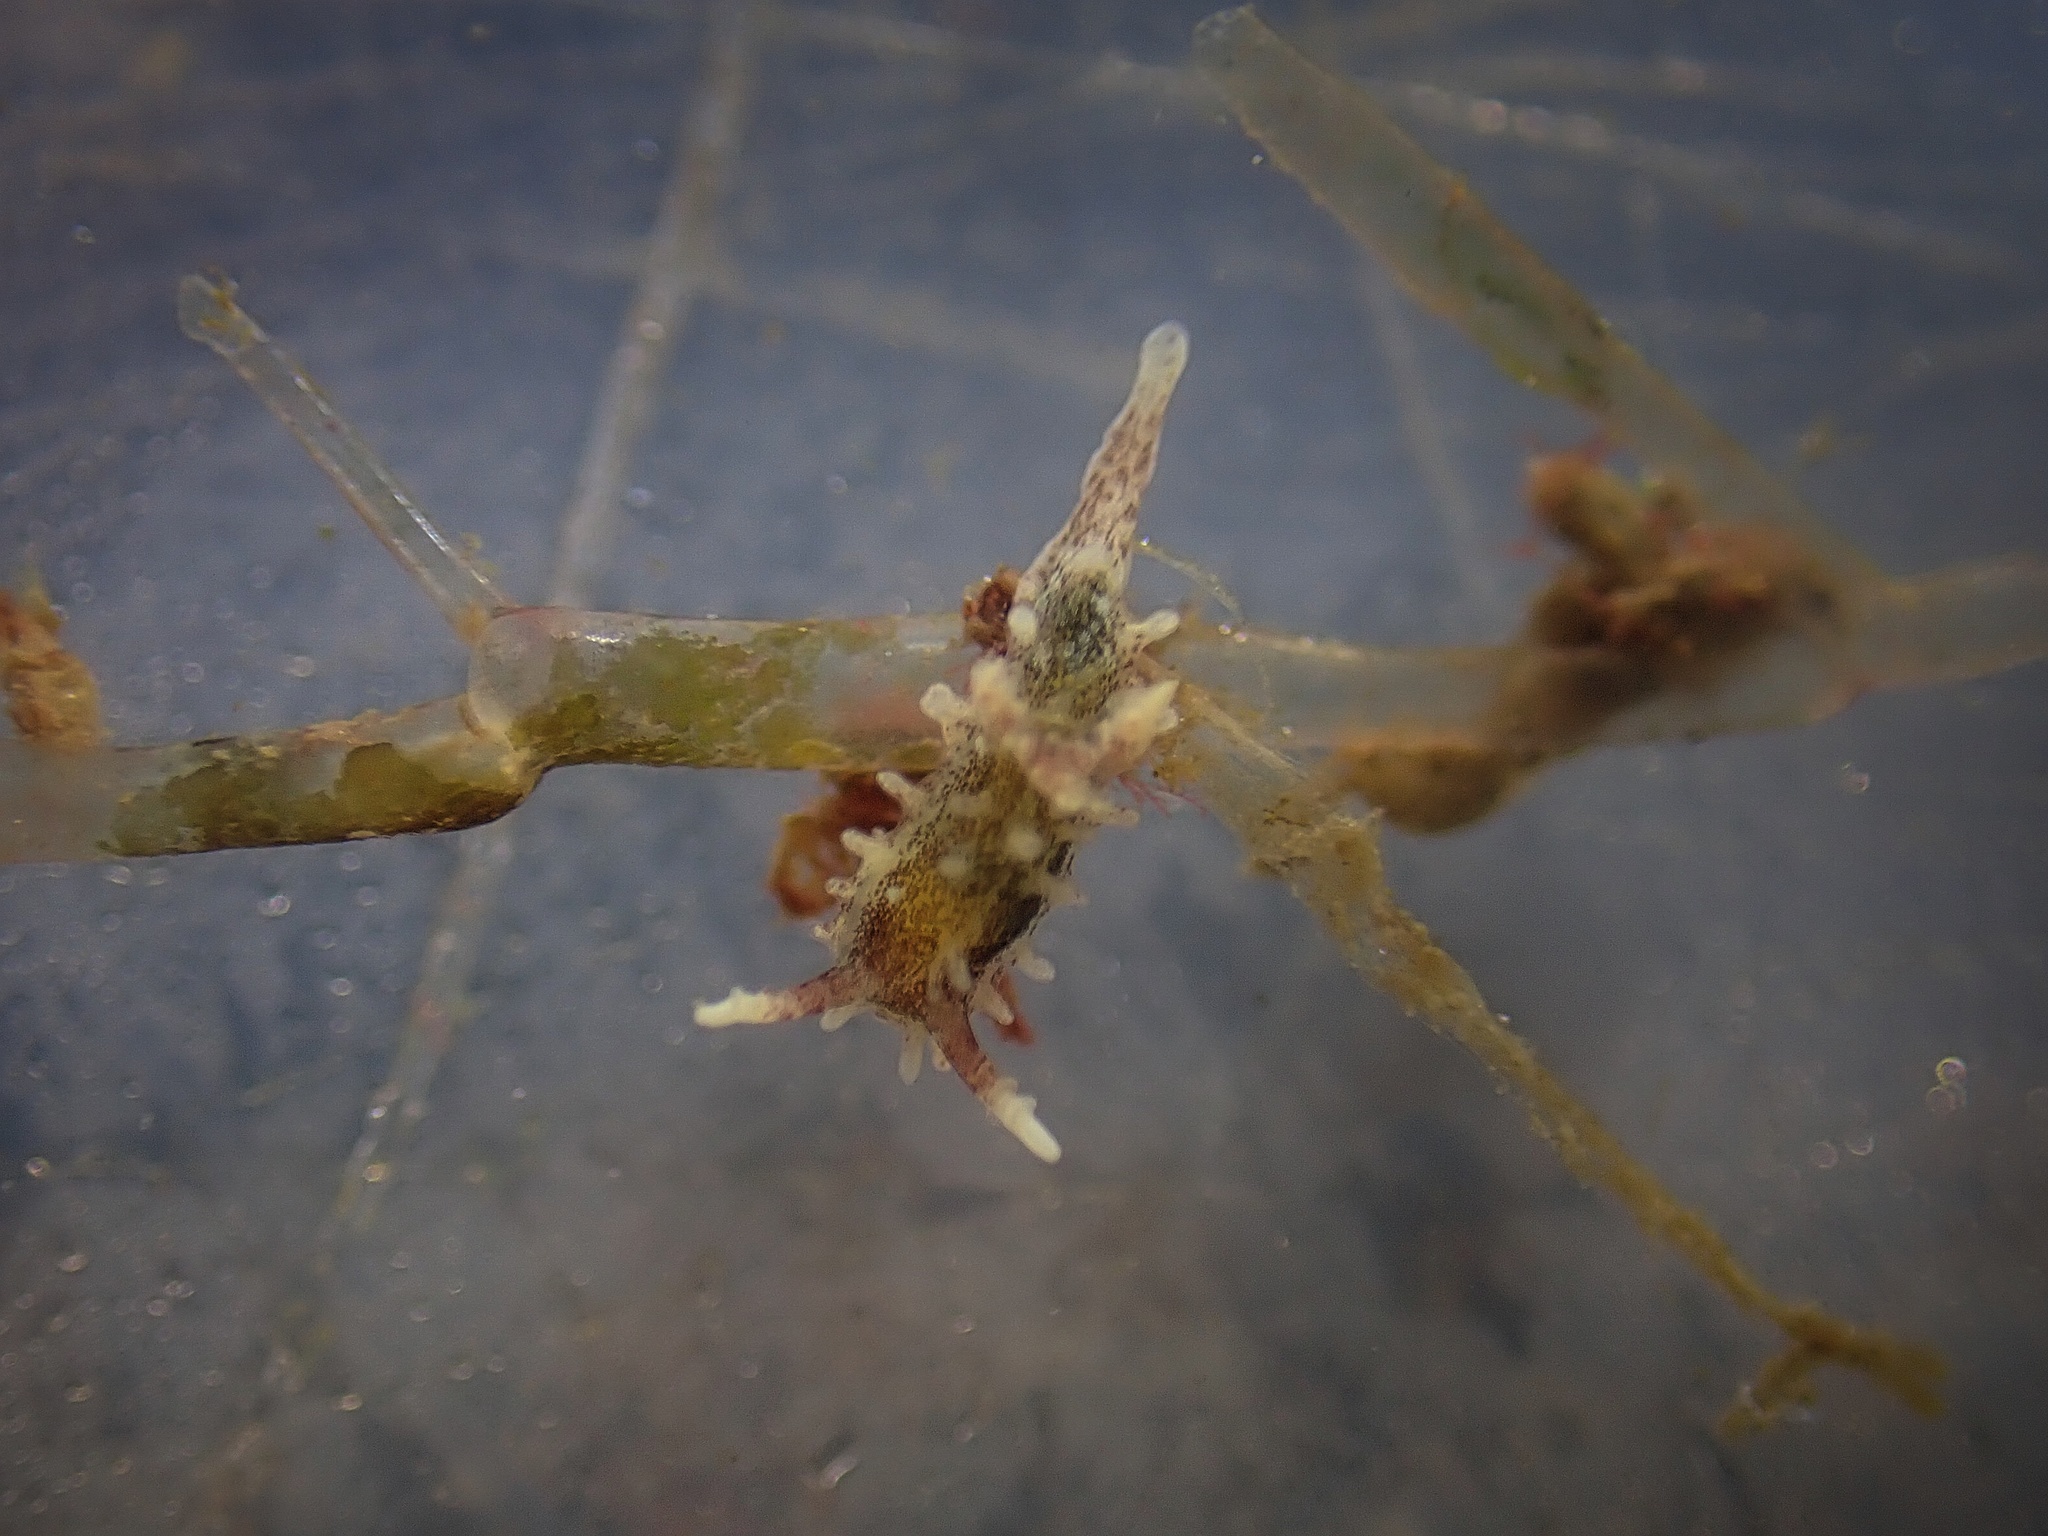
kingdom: Animalia
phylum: Mollusca
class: Gastropoda
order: Nudibranchia
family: Goniodorididae
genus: Okenia
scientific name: Okenia
